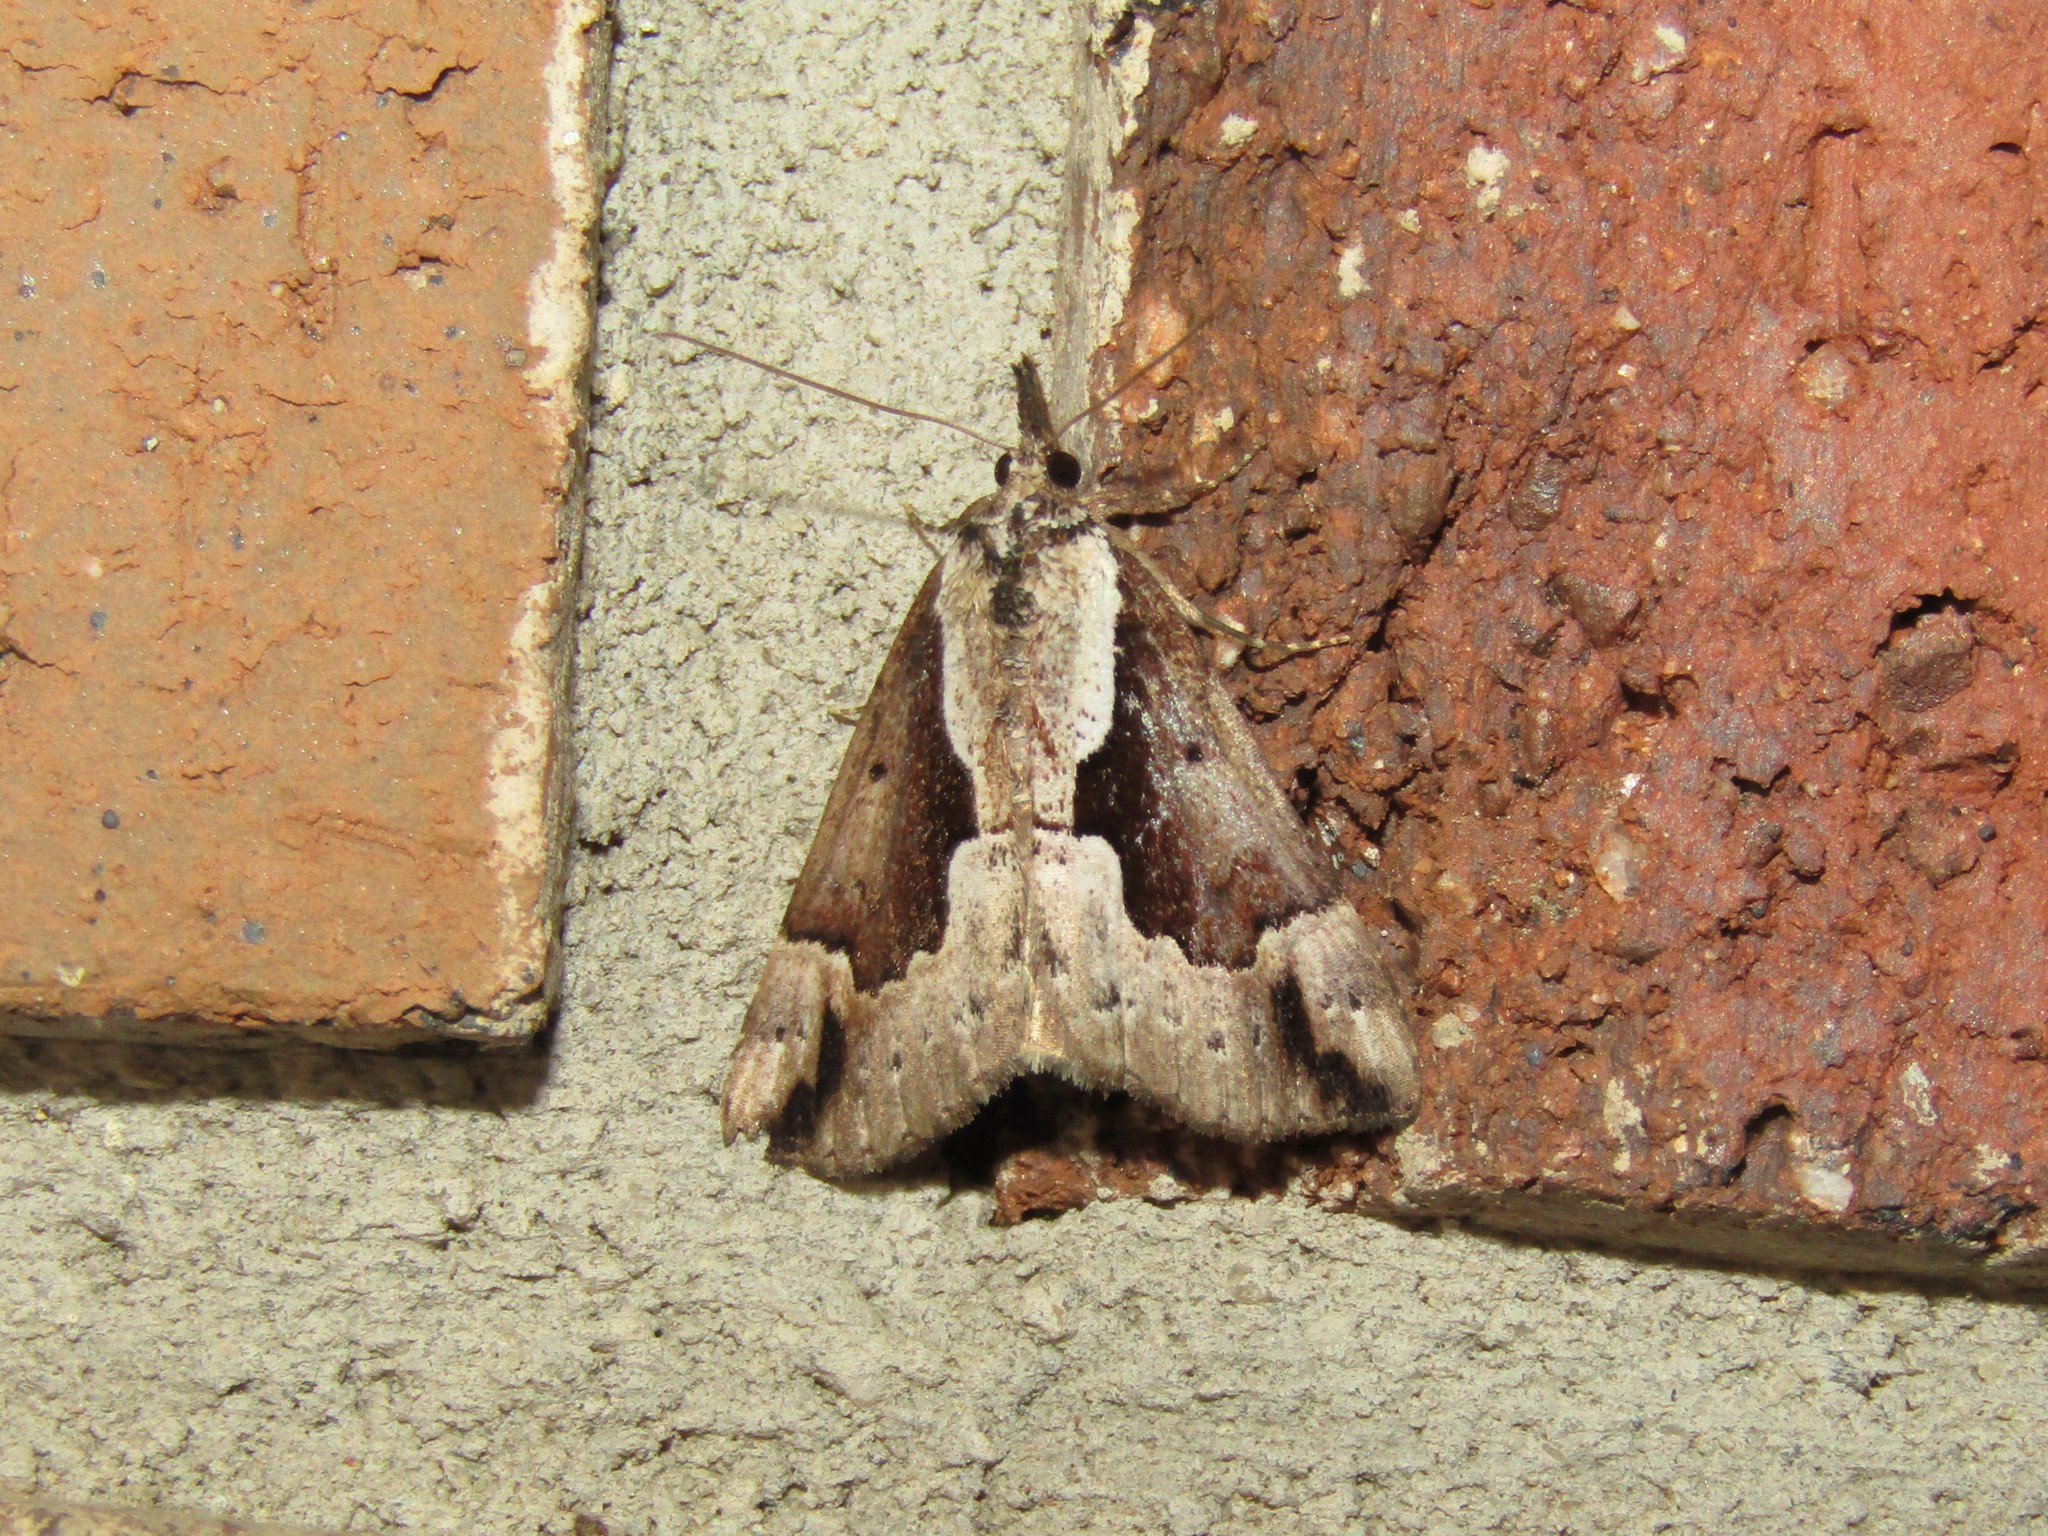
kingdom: Animalia
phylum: Arthropoda
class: Insecta
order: Lepidoptera
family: Erebidae
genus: Hypena
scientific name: Hypena baltimoralis
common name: Baltimore snout
